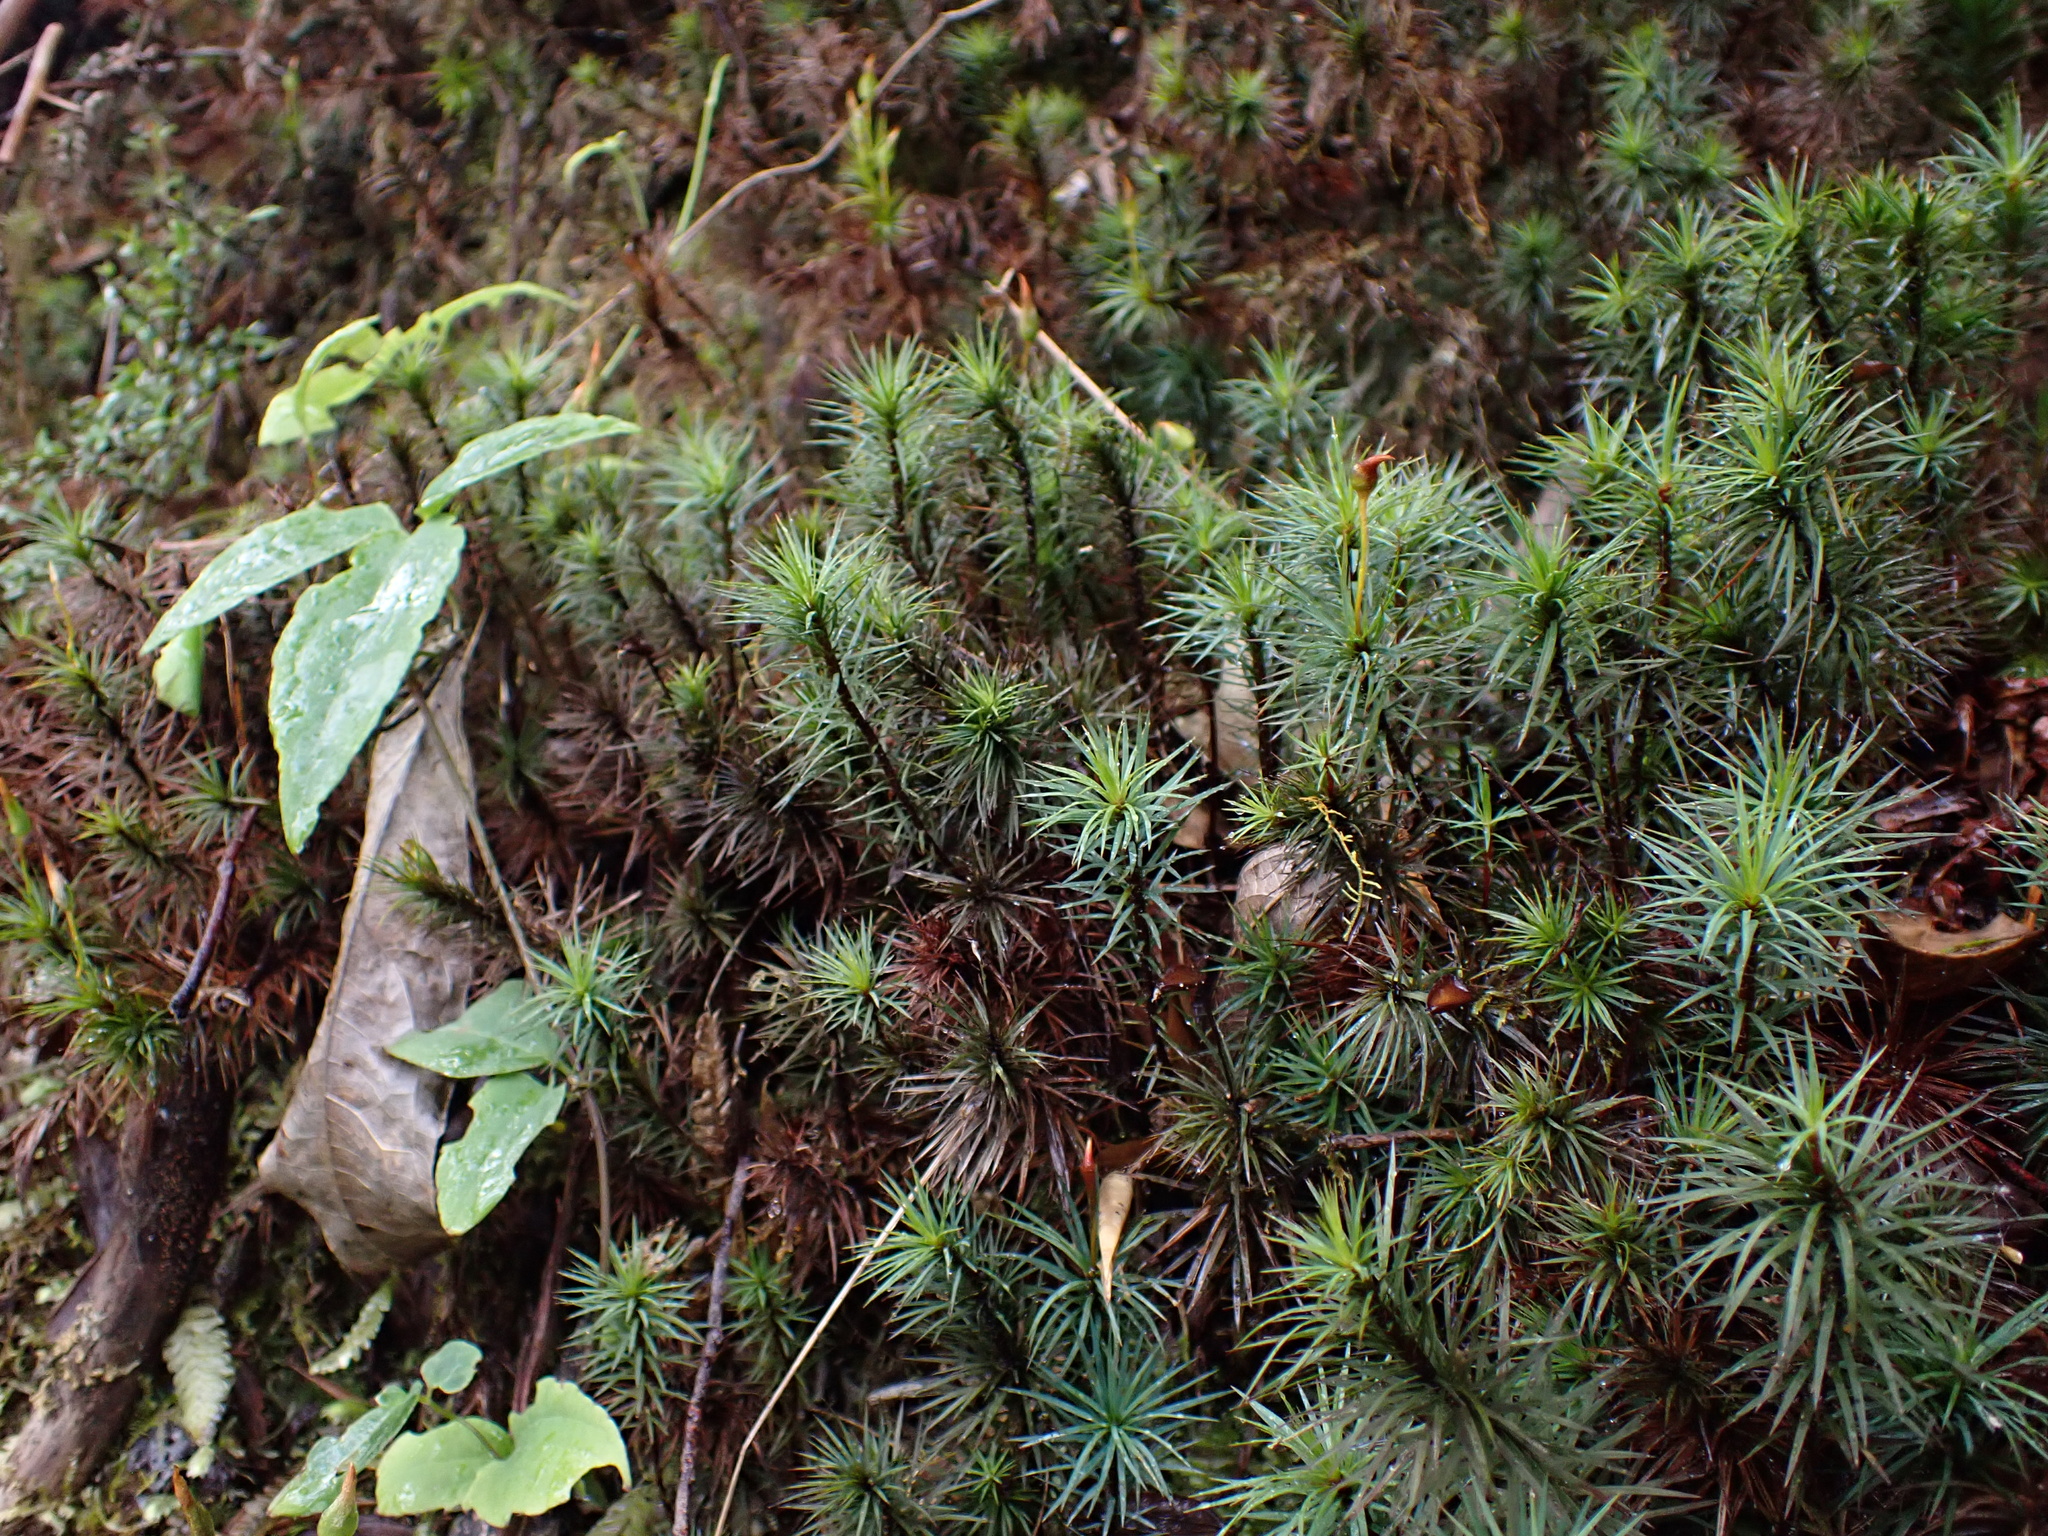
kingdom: Plantae
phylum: Bryophyta
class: Polytrichopsida
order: Polytrichales
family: Polytrichaceae
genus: Dawsonia
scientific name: Dawsonia superba
